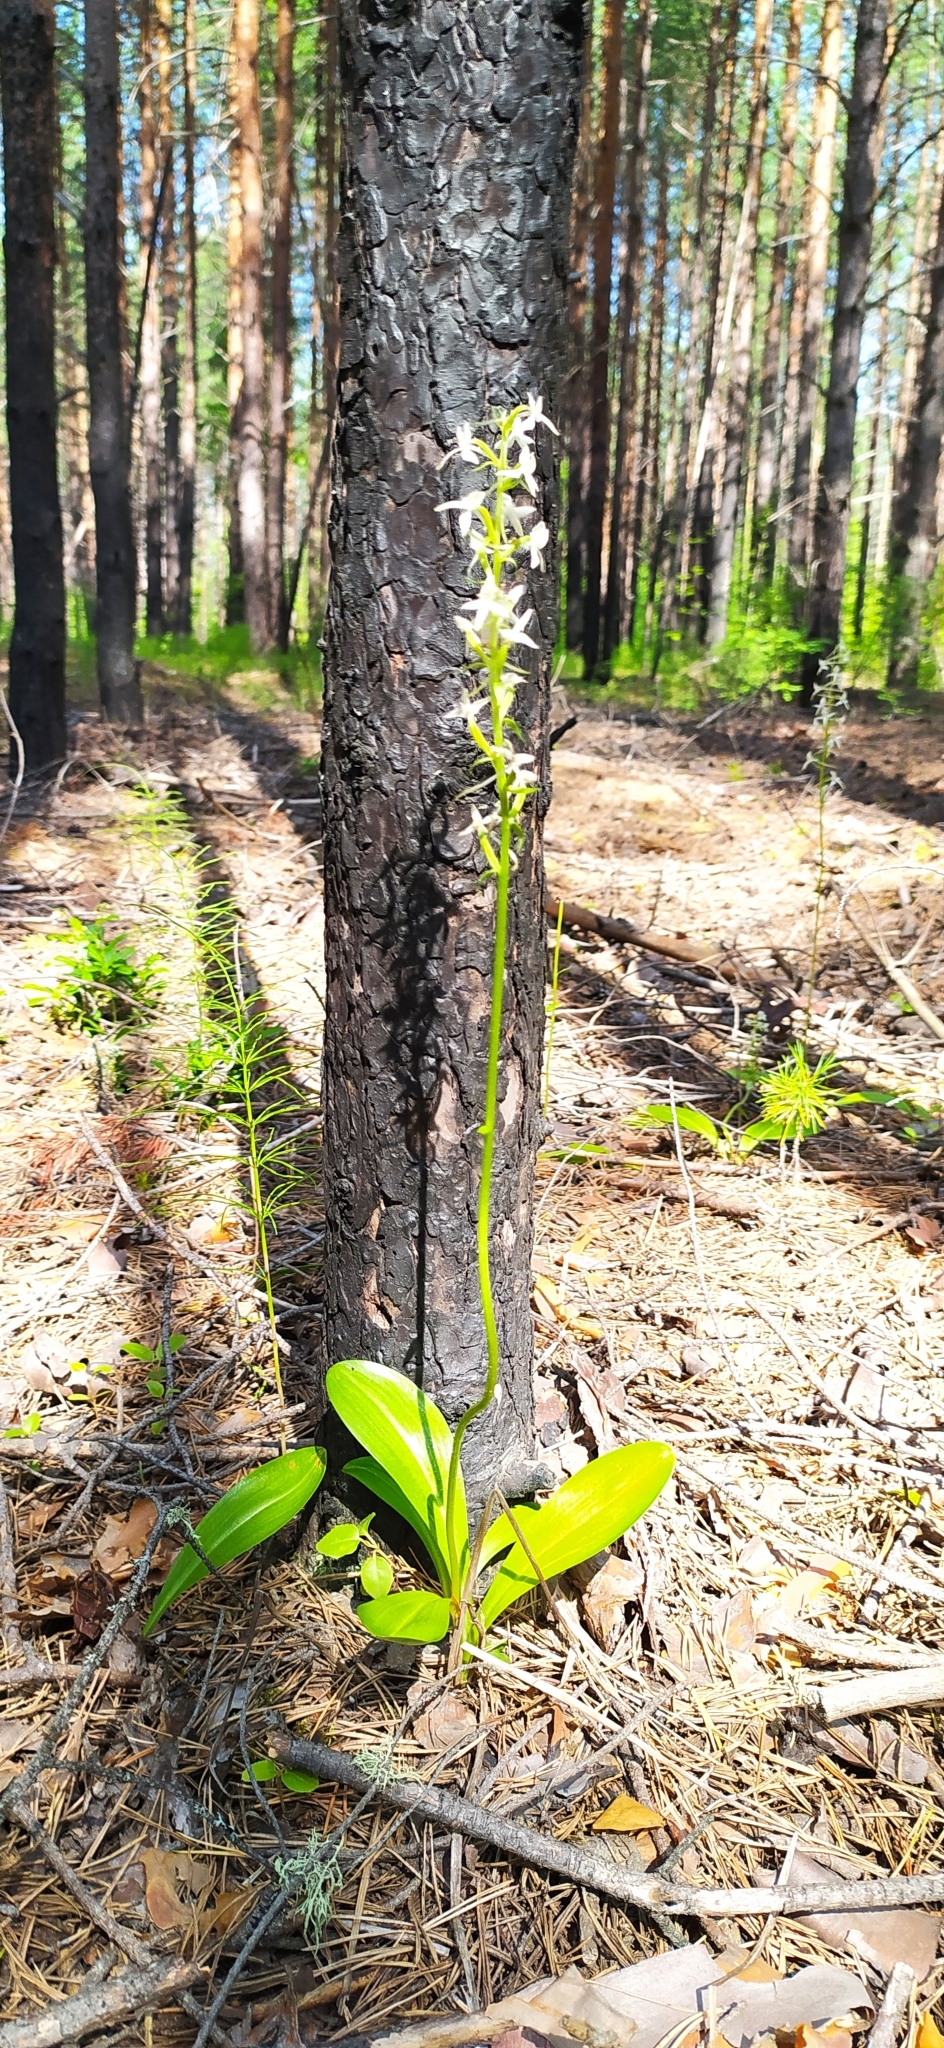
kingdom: Plantae
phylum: Tracheophyta
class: Liliopsida
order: Asparagales
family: Orchidaceae
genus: Platanthera
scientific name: Platanthera bifolia
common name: Lesser butterfly-orchid
